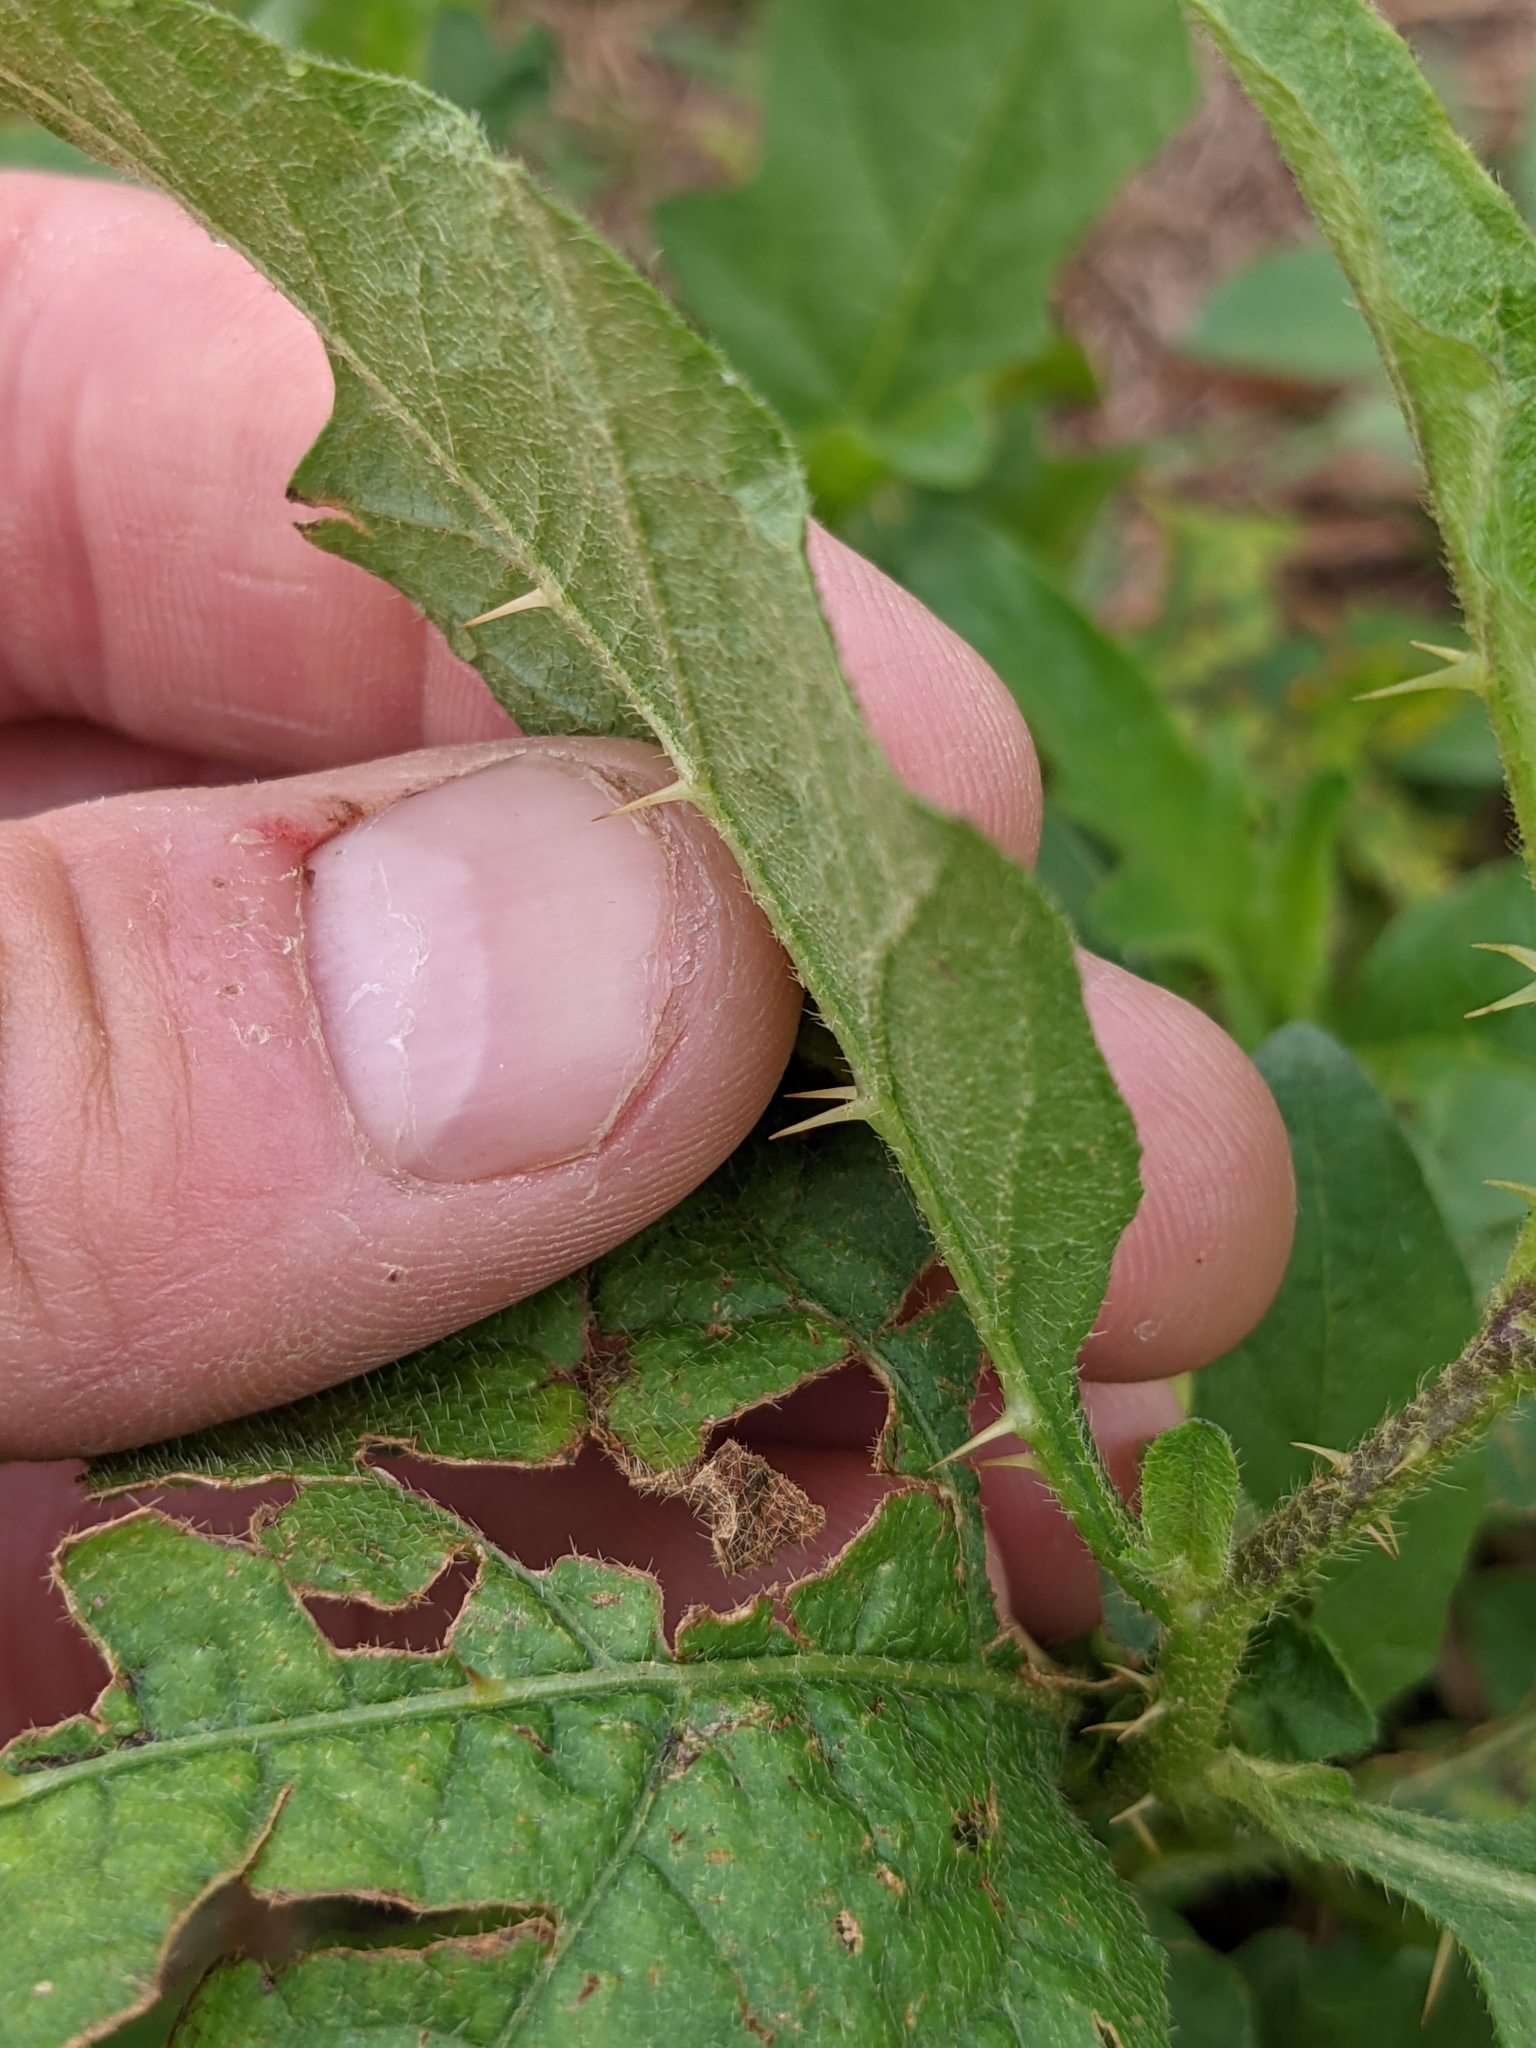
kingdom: Plantae
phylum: Tracheophyta
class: Magnoliopsida
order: Solanales
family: Solanaceae
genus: Solanum
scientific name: Solanum carolinense
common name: Horse-nettle
